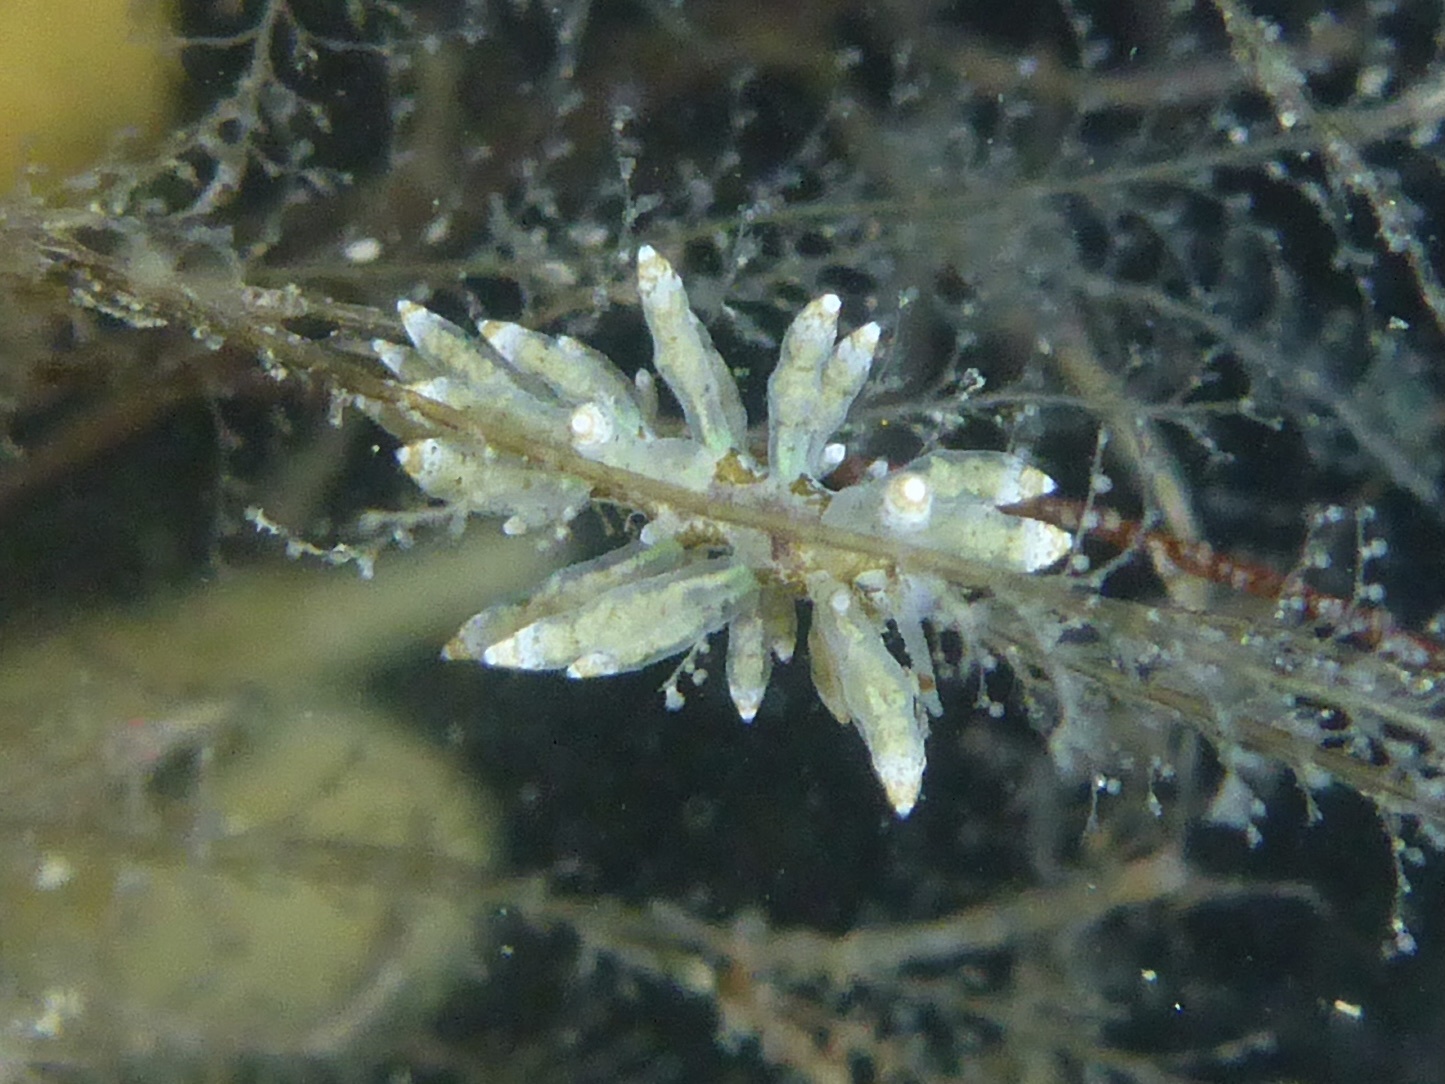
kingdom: Animalia
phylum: Mollusca
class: Gastropoda
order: Nudibranchia
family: Eubranchidae
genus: Eubranchus
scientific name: Eubranchus rustyus
